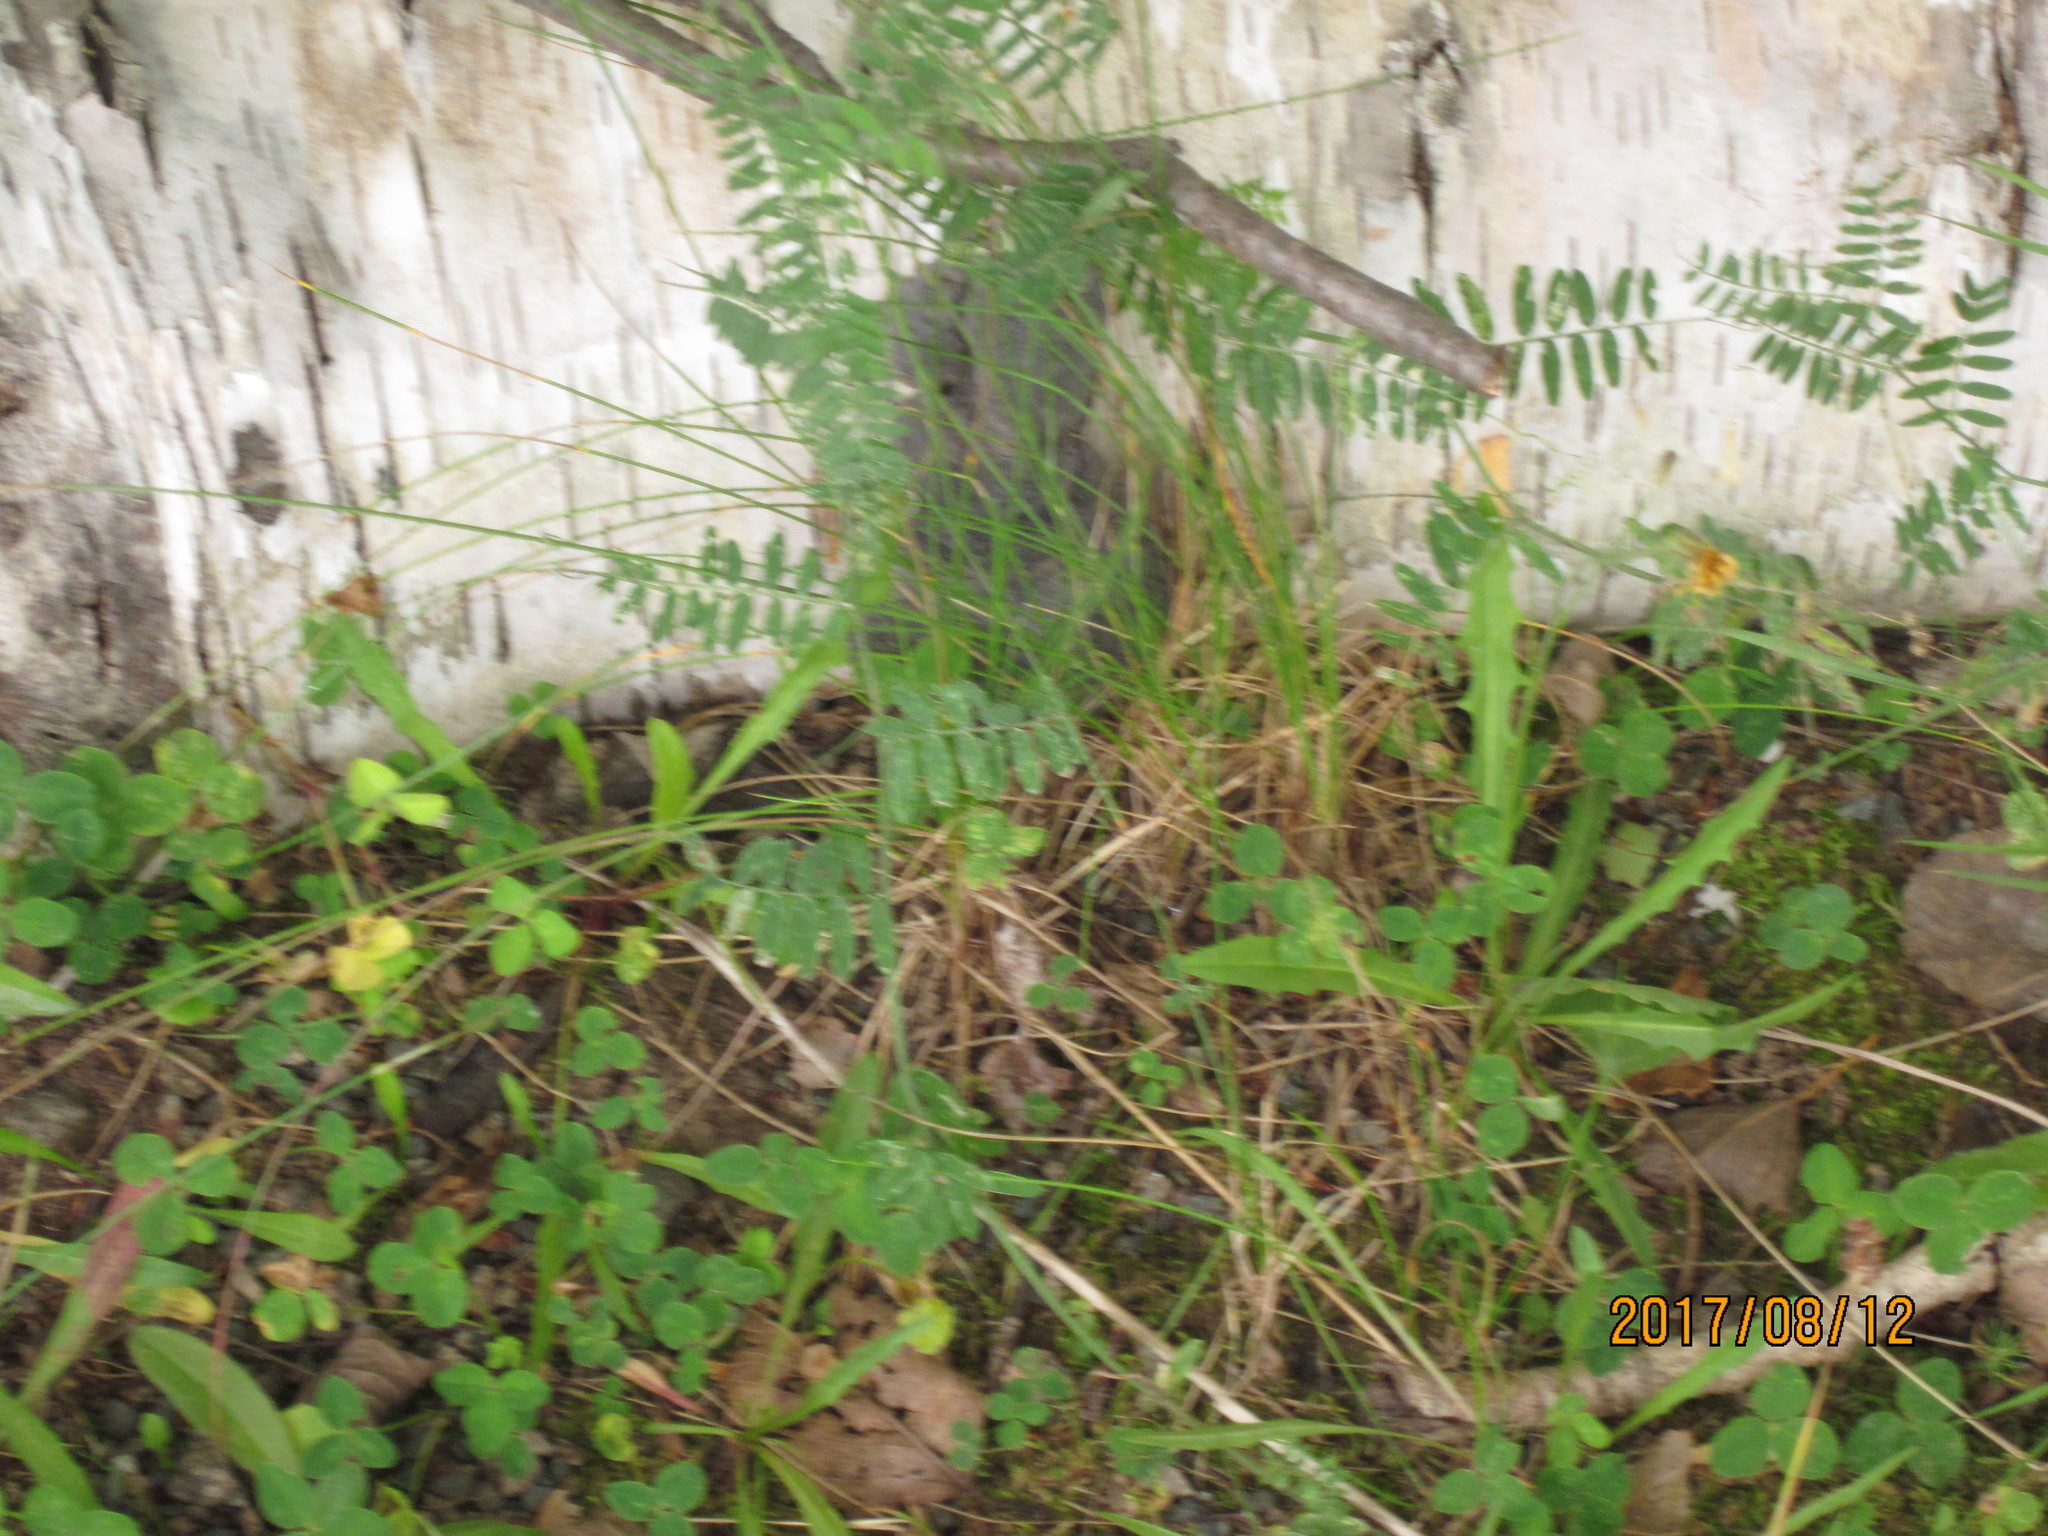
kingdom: Plantae
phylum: Tracheophyta
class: Magnoliopsida
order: Fabales
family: Fabaceae
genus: Vicia
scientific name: Vicia cracca
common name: Bird vetch
